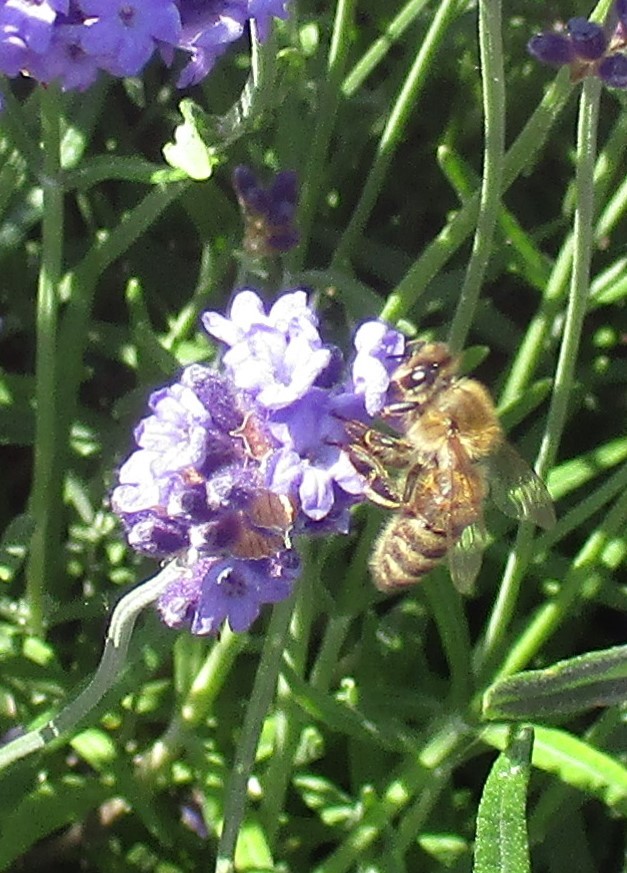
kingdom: Animalia
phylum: Arthropoda
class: Insecta
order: Hymenoptera
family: Apidae
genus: Apis
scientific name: Apis mellifera
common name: Honey bee
